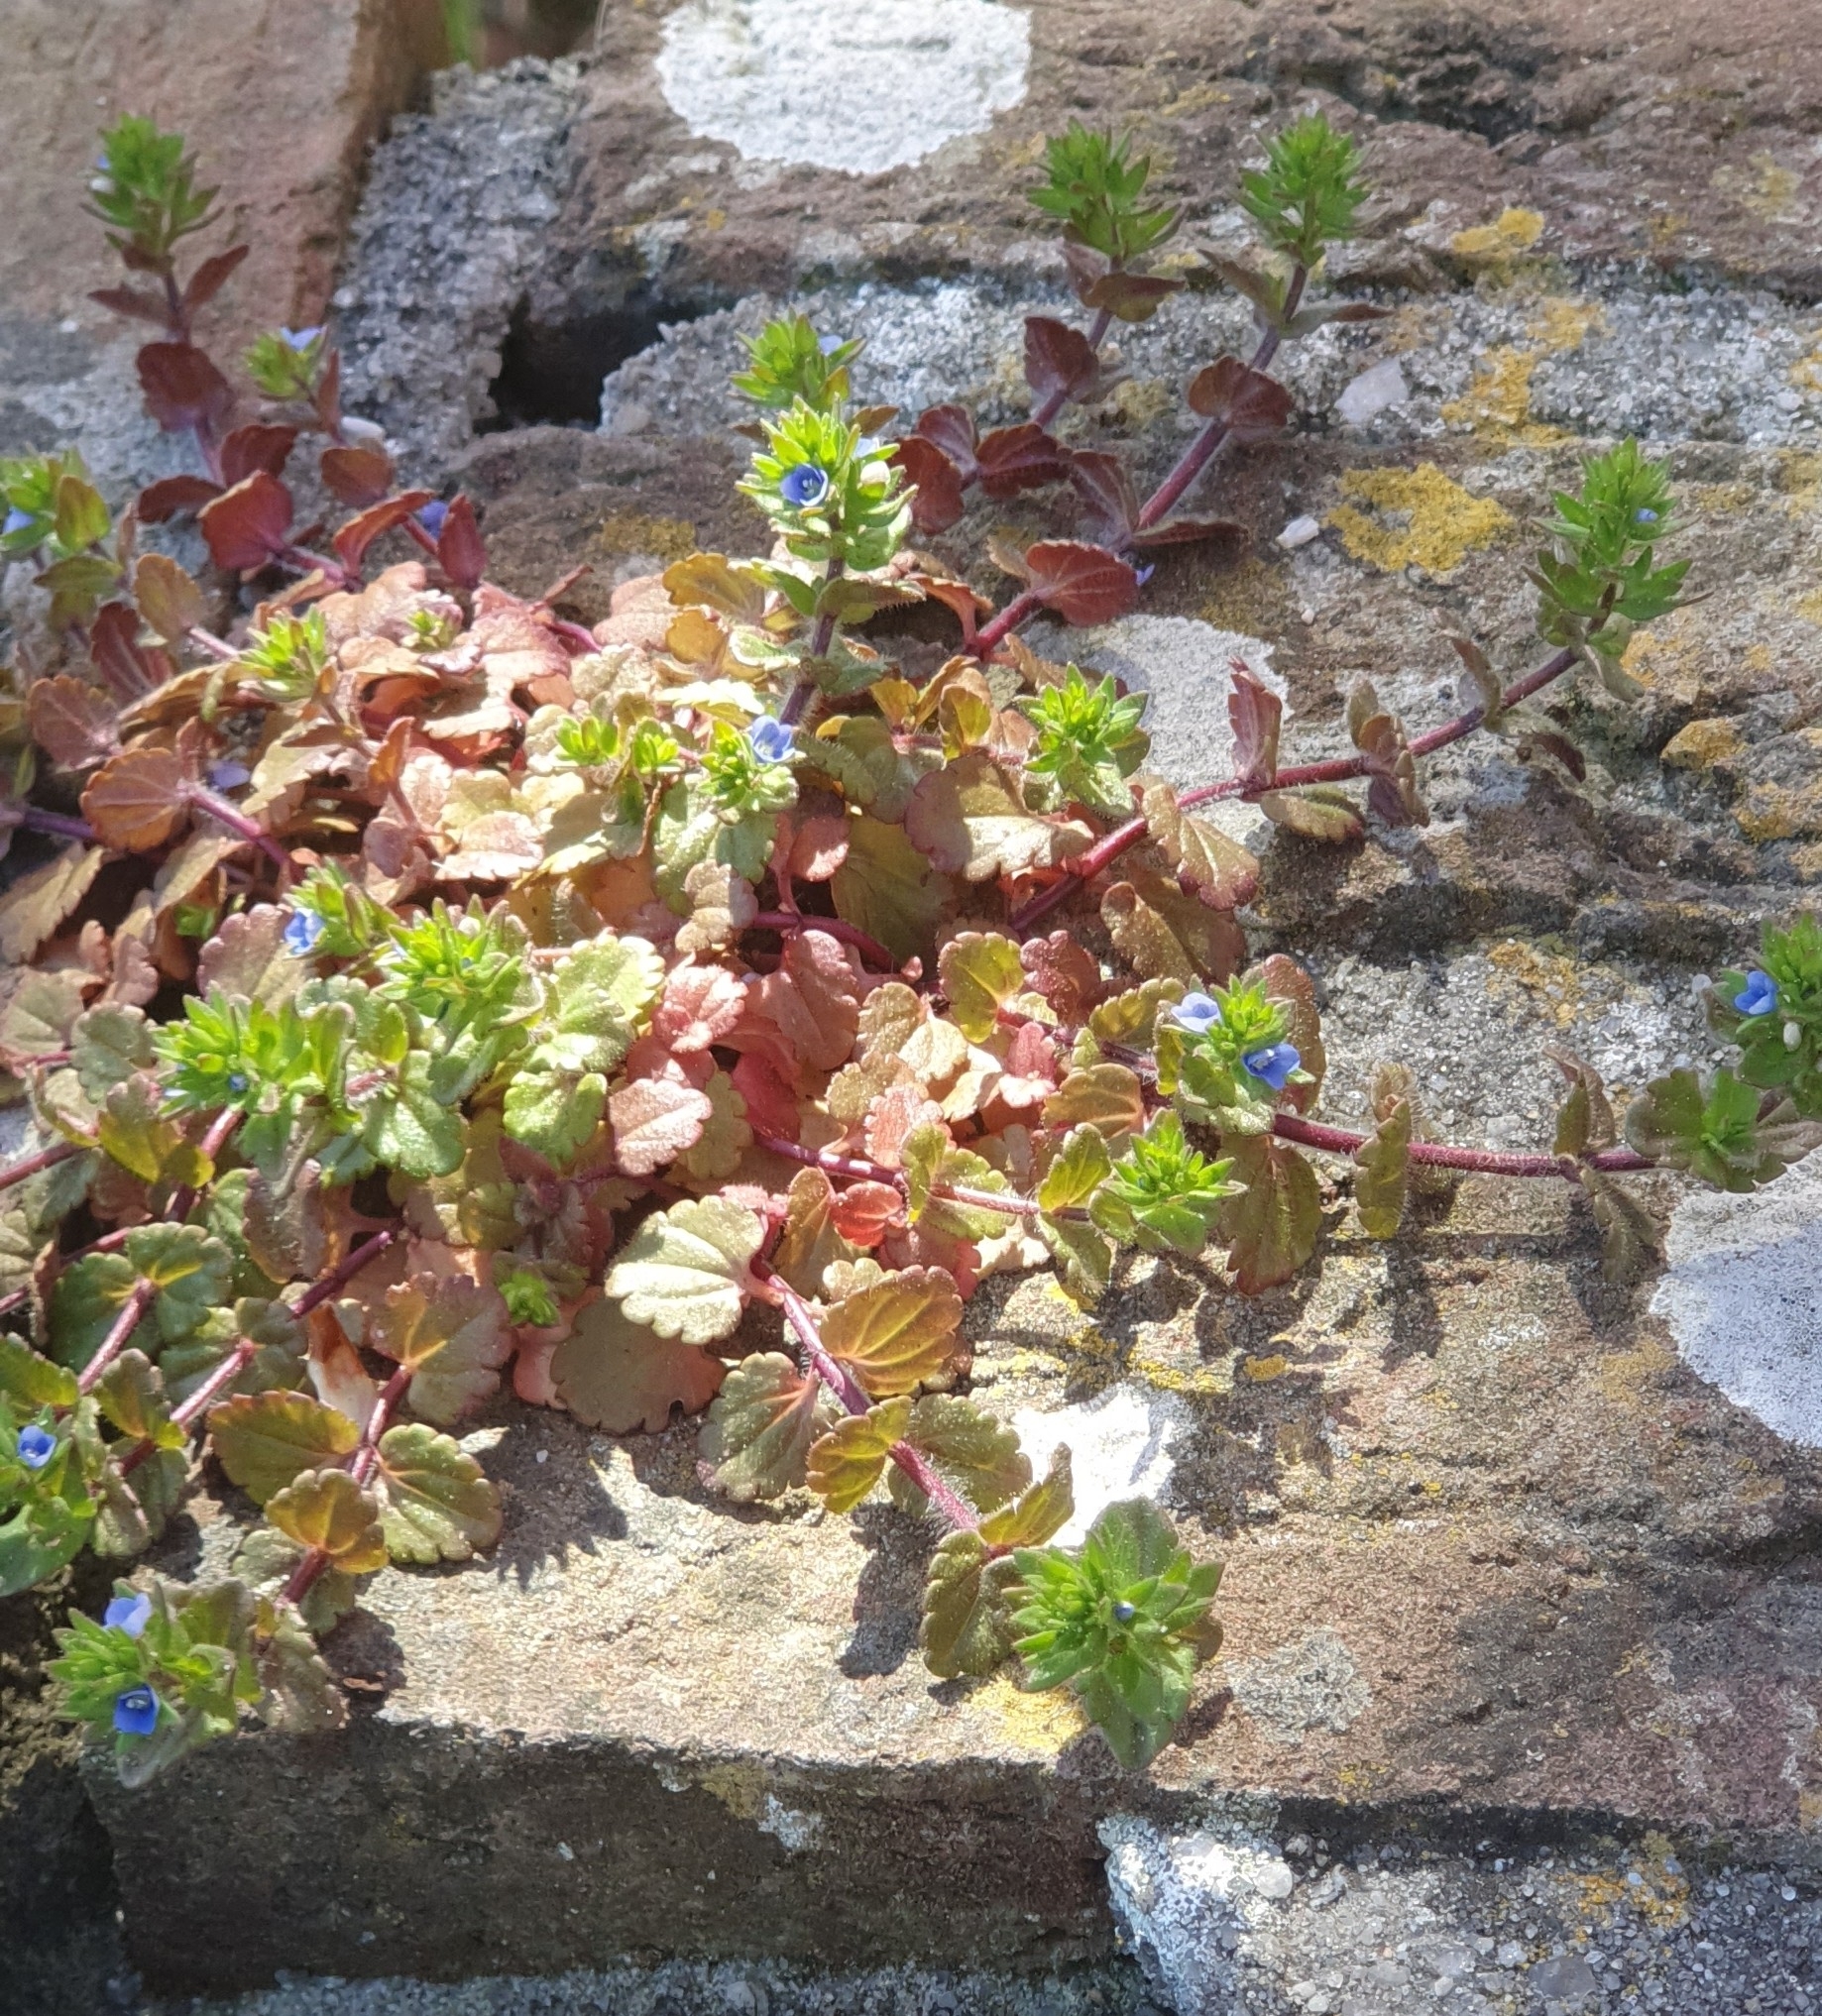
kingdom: Plantae
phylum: Tracheophyta
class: Magnoliopsida
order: Lamiales
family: Plantaginaceae
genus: Veronica
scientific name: Veronica arvensis
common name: Corn speedwell
